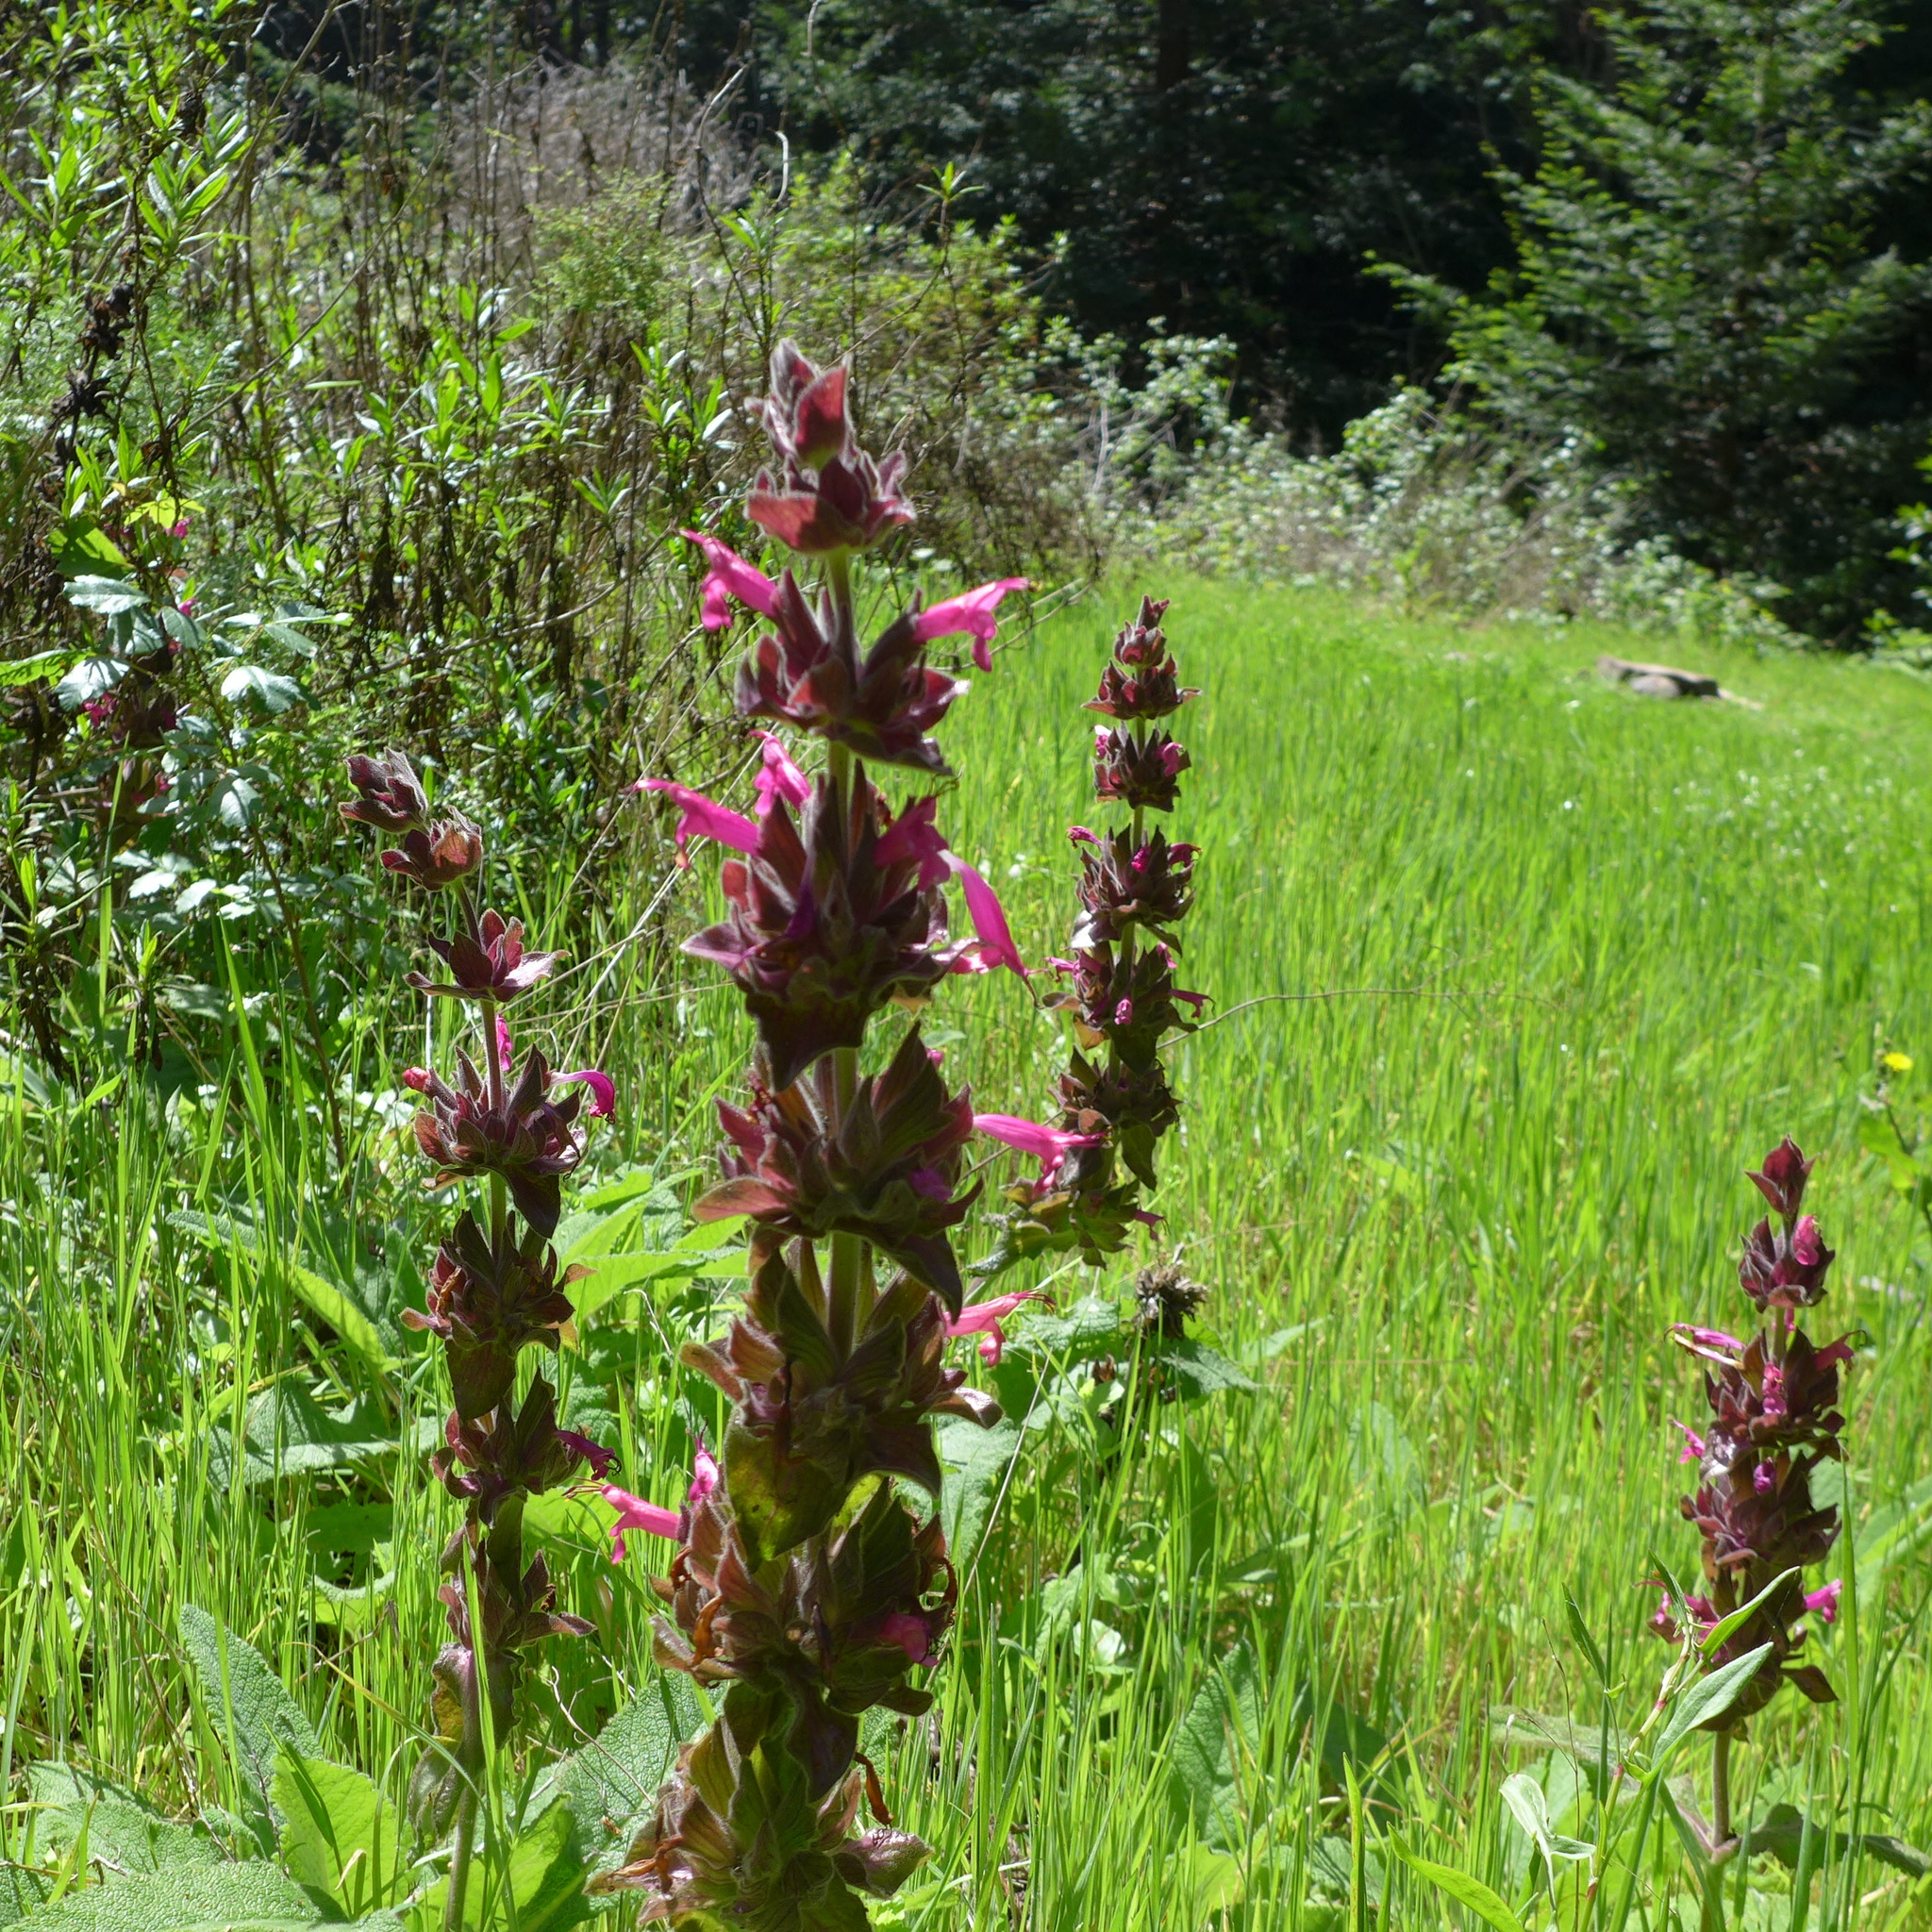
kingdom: Plantae
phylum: Tracheophyta
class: Magnoliopsida
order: Lamiales
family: Lamiaceae
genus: Salvia
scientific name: Salvia spathacea
